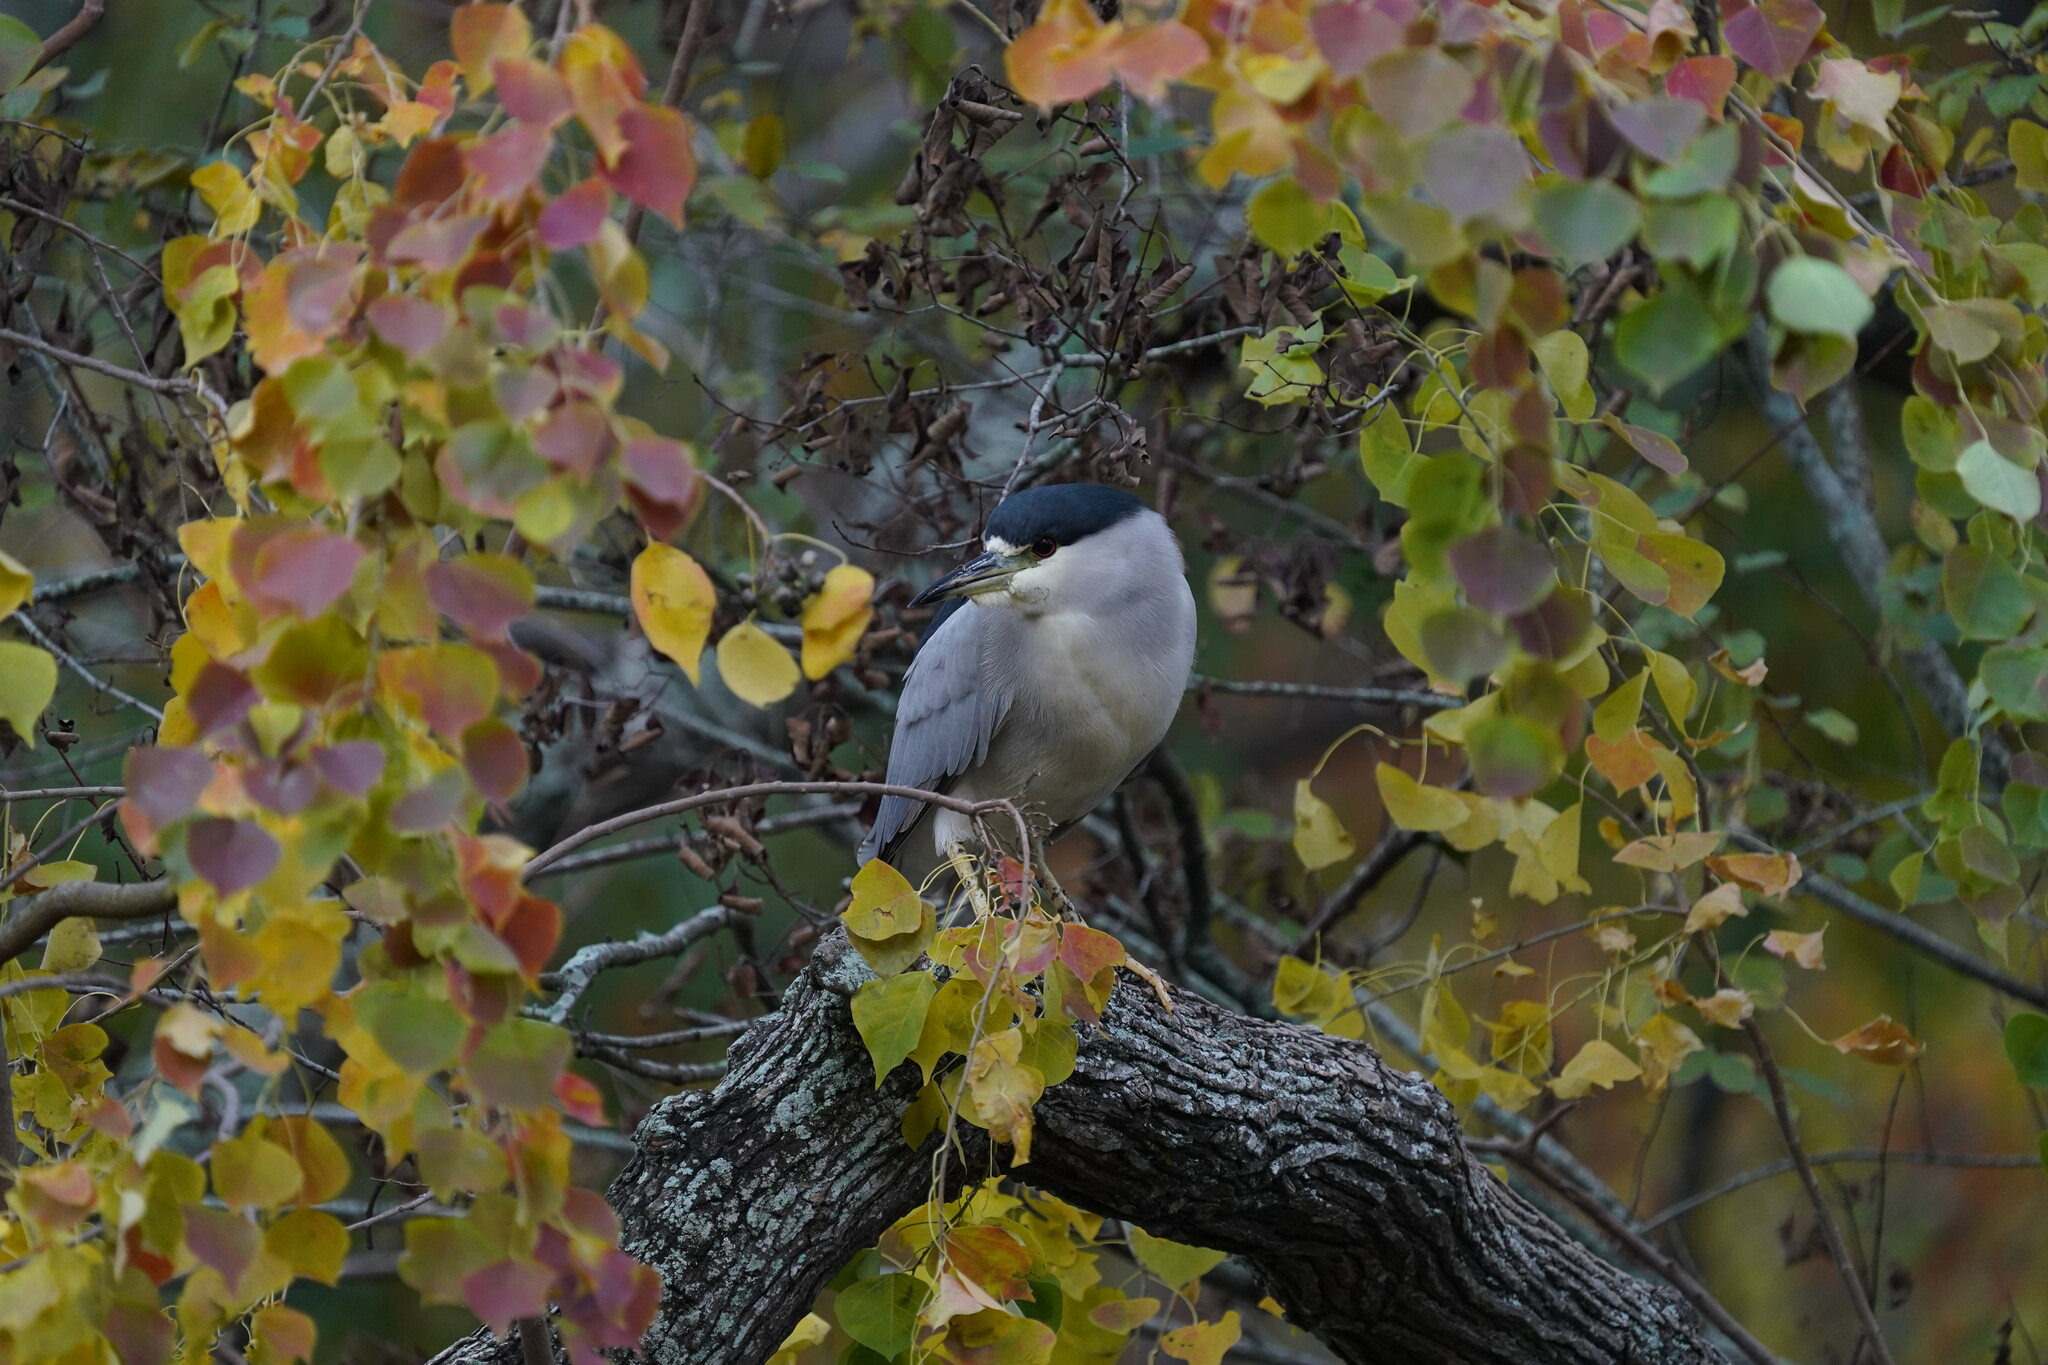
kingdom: Animalia
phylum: Chordata
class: Aves
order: Pelecaniformes
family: Ardeidae
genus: Nycticorax
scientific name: Nycticorax nycticorax
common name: Black-crowned night heron
